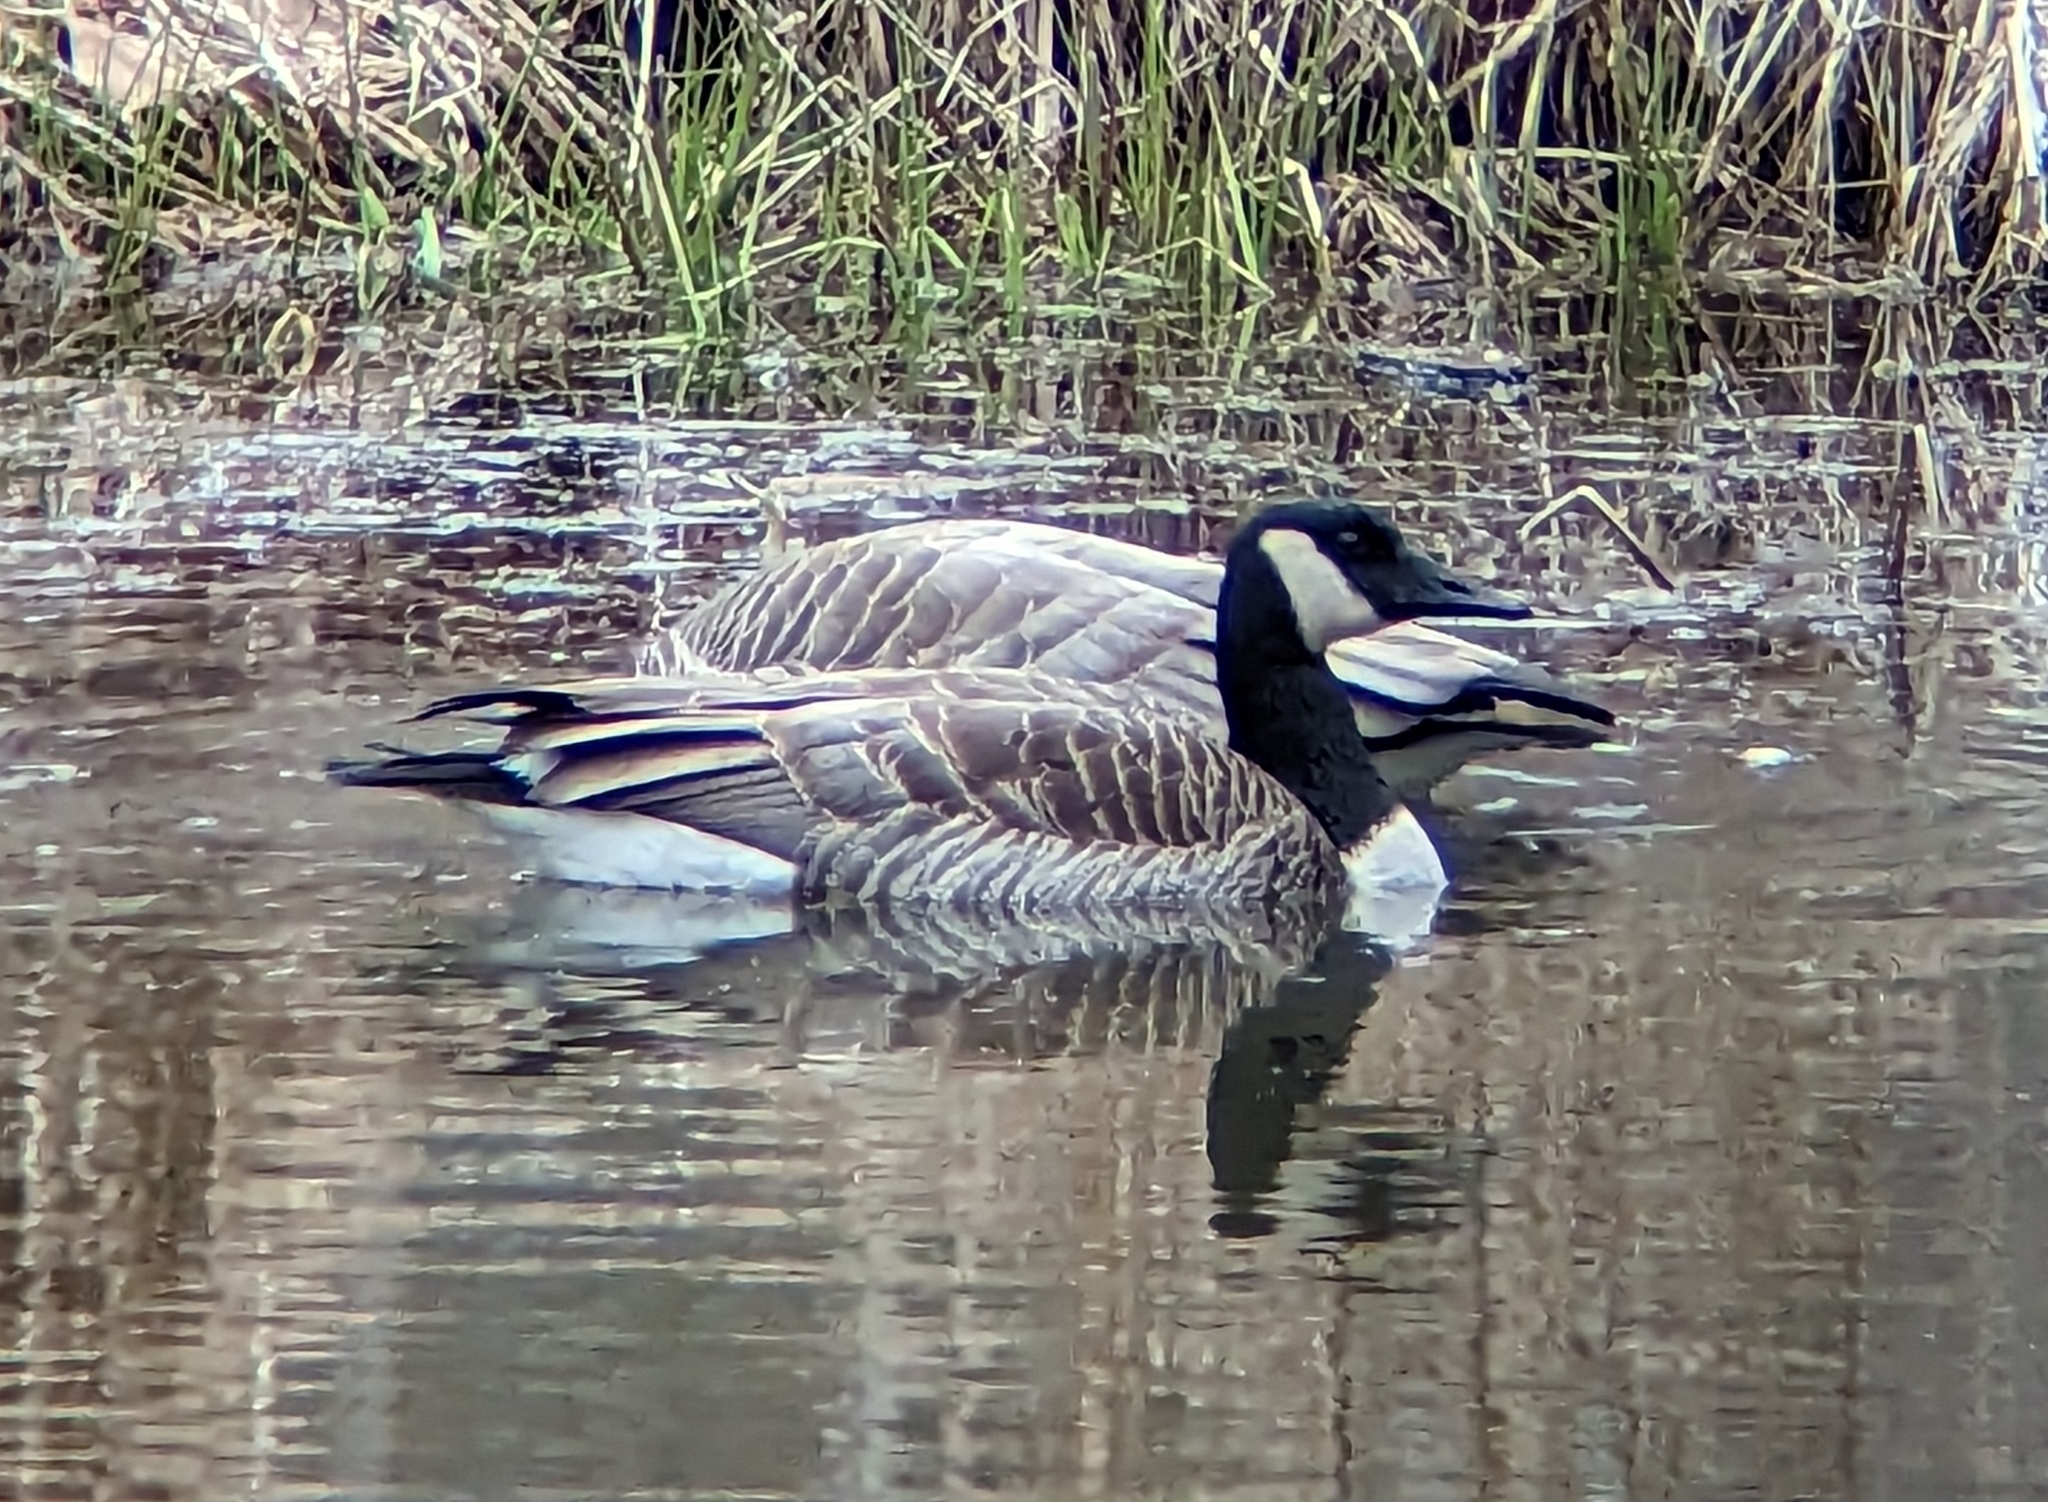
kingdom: Animalia
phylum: Chordata
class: Aves
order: Anseriformes
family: Anatidae
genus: Branta
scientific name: Branta canadensis
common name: Canada goose
